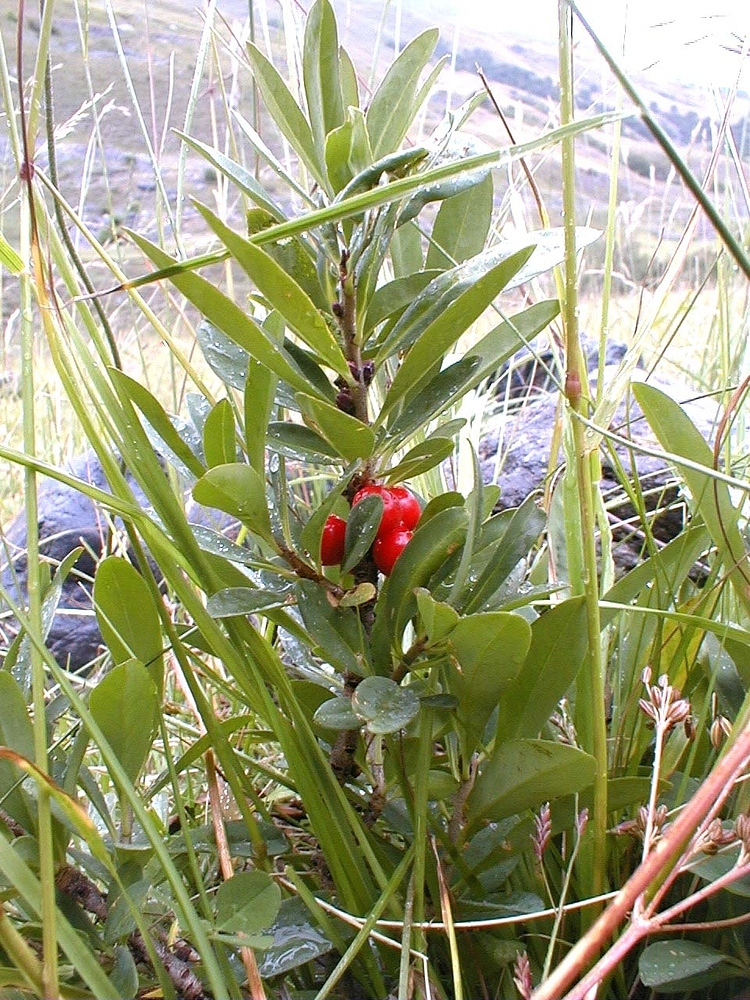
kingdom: Plantae
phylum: Tracheophyta
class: Magnoliopsida
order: Malvales
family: Thymelaeaceae
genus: Daphne
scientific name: Daphne mezereum
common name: Mezereon
